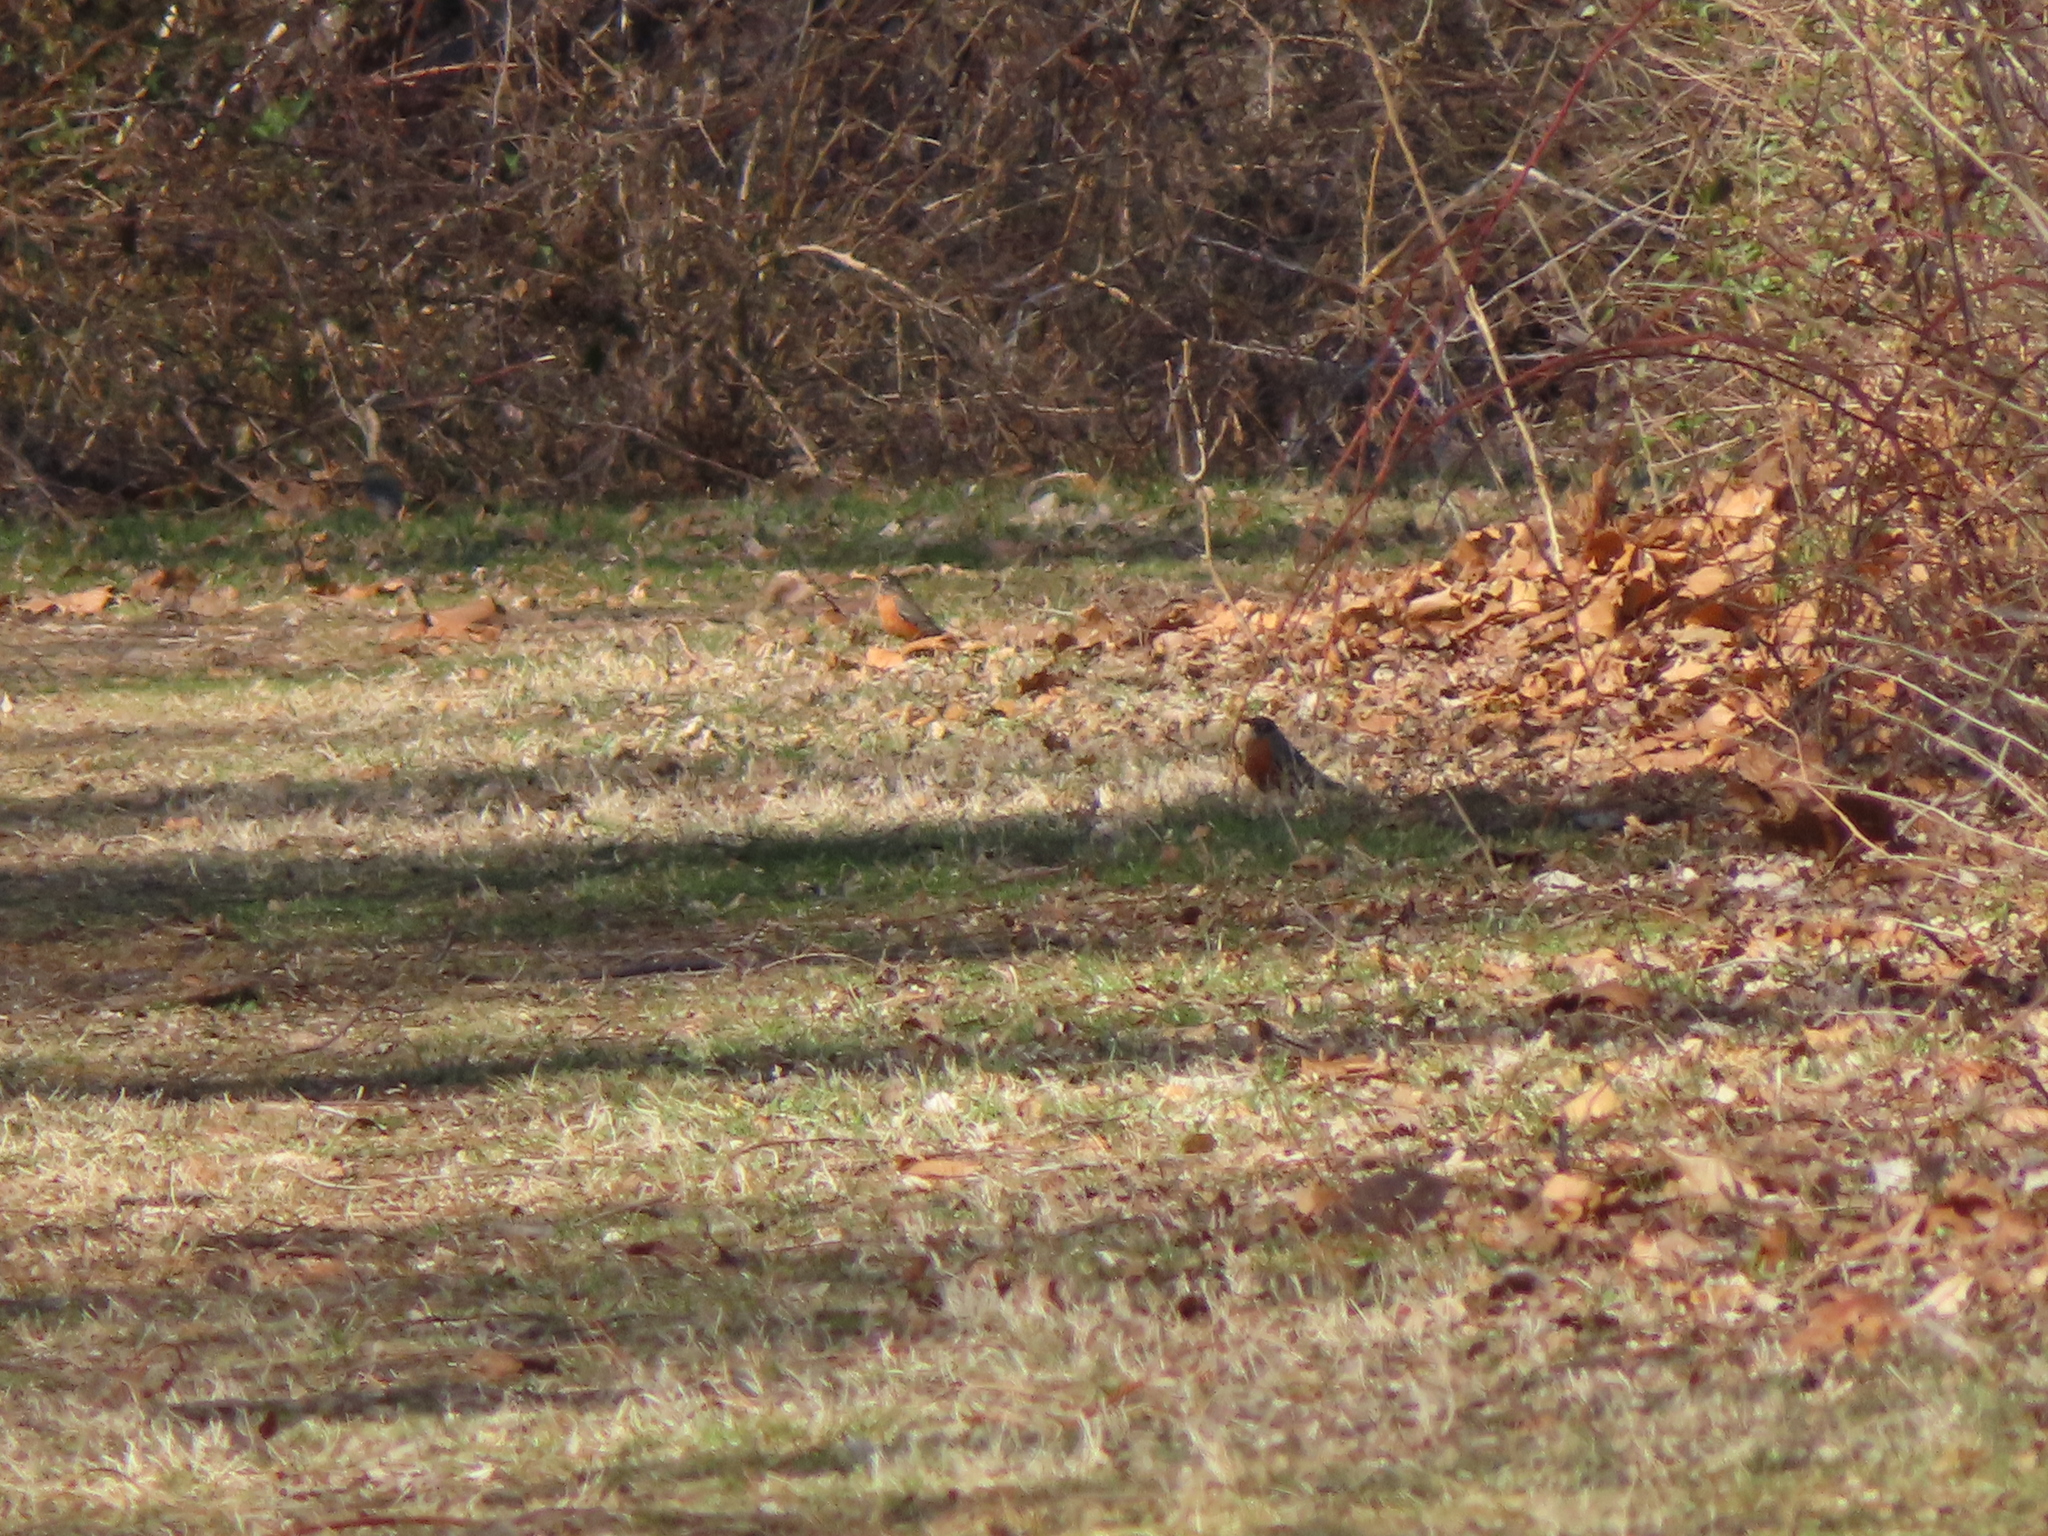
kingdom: Animalia
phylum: Chordata
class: Aves
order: Passeriformes
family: Turdidae
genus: Turdus
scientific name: Turdus migratorius
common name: American robin
